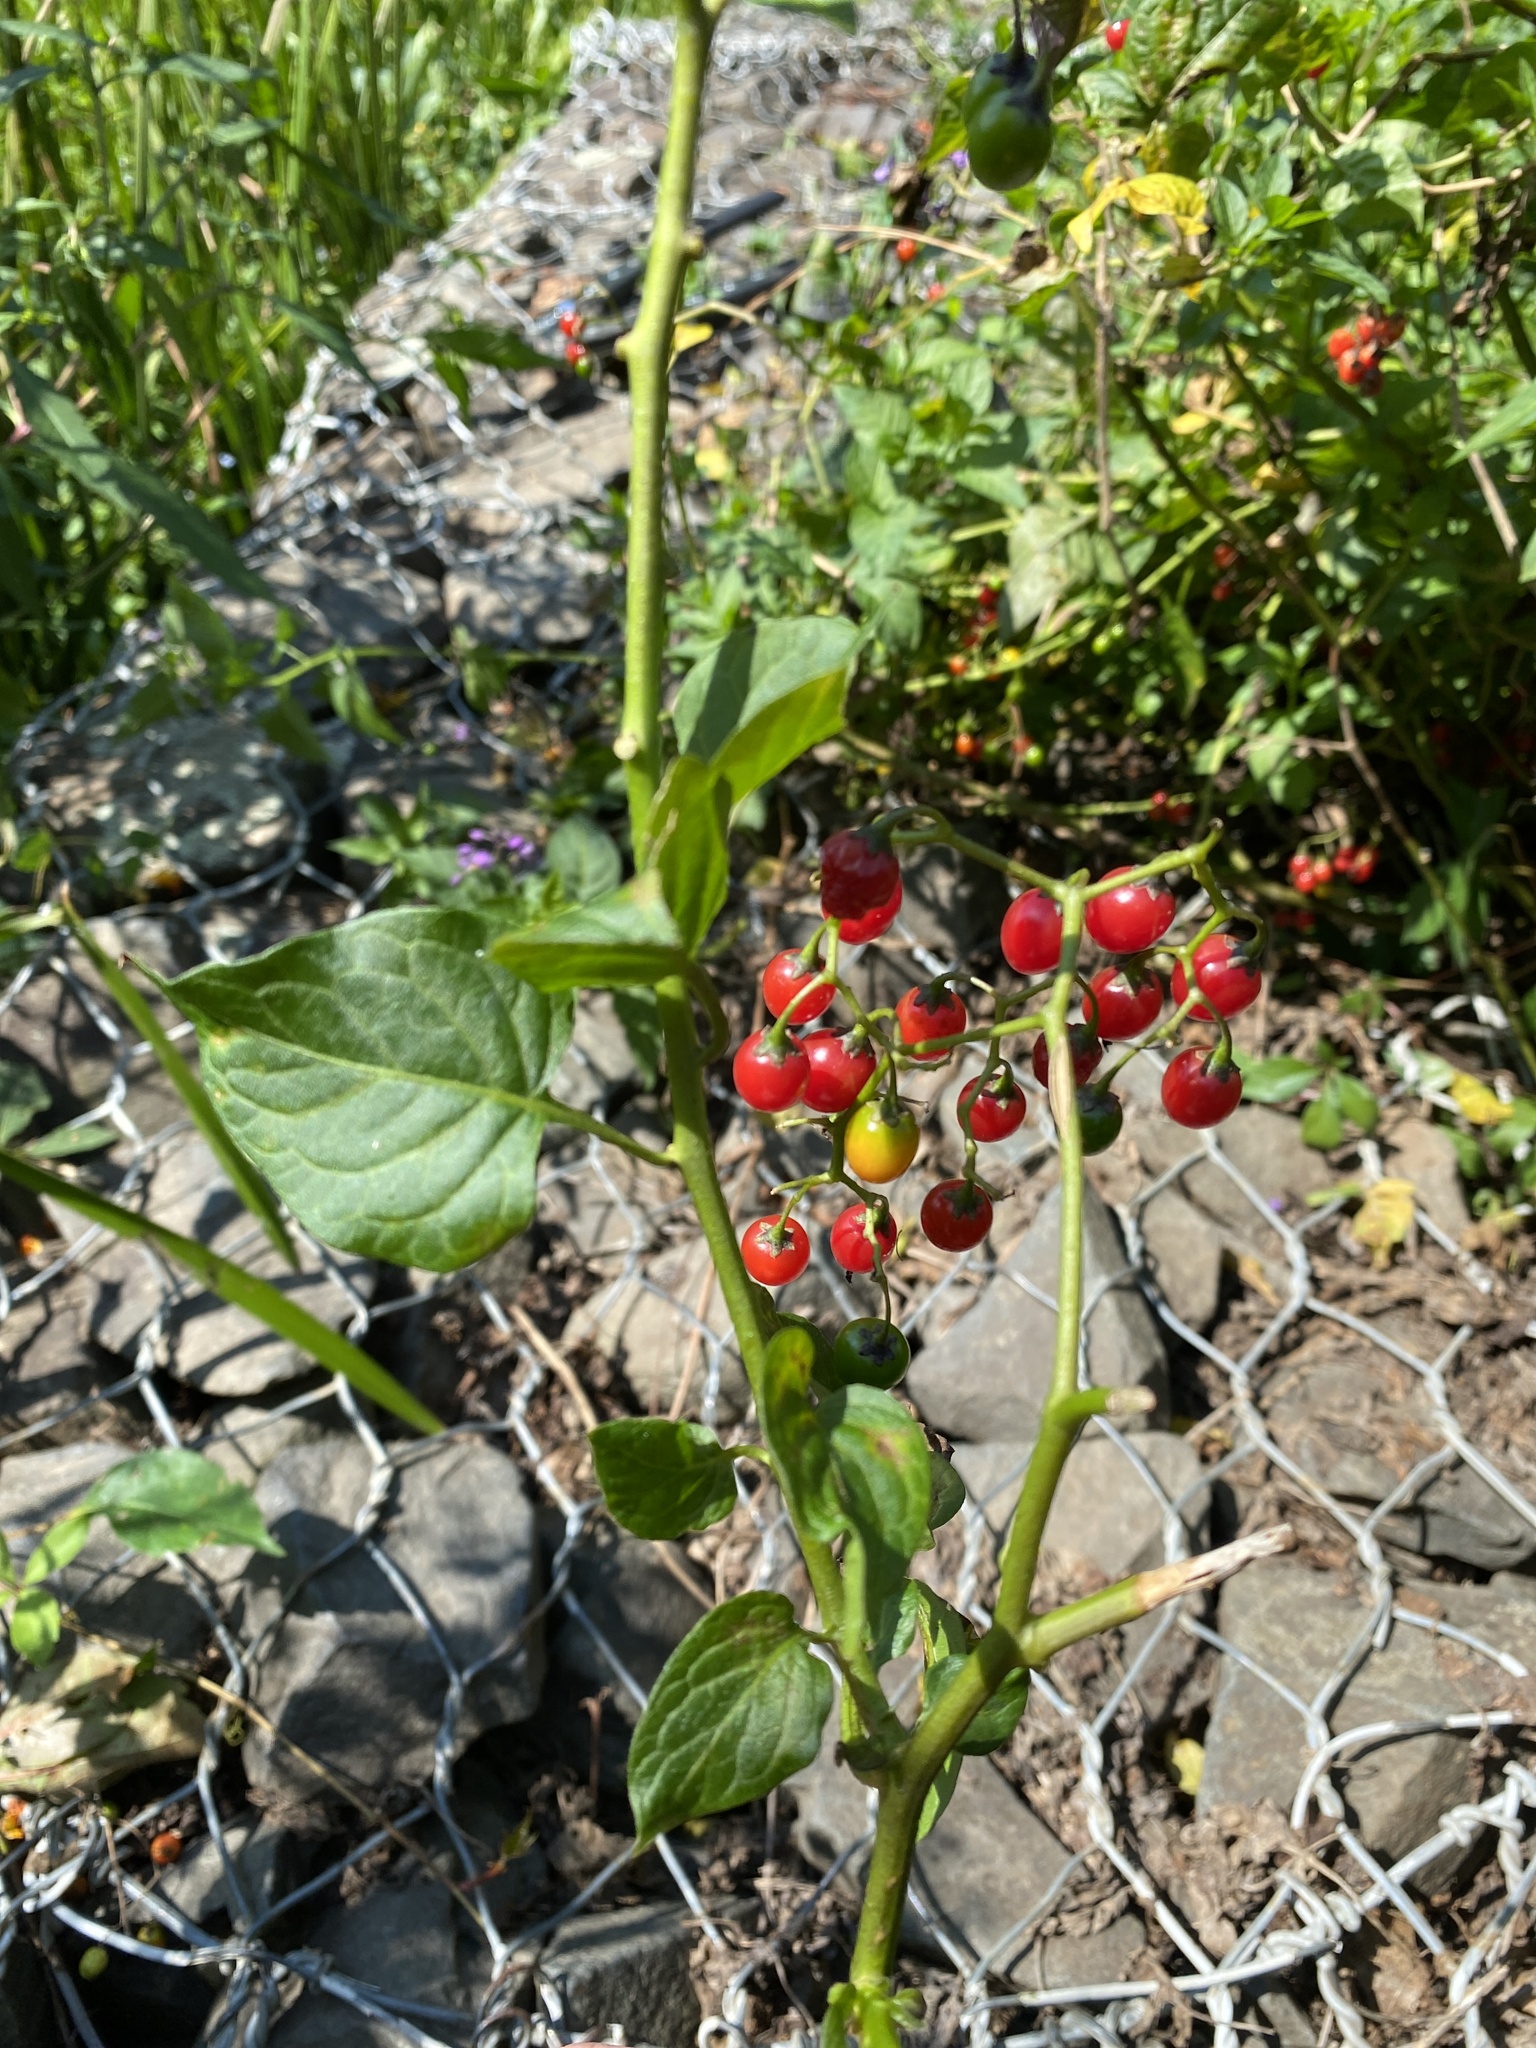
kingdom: Plantae
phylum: Tracheophyta
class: Magnoliopsida
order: Solanales
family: Solanaceae
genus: Solanum
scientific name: Solanum dulcamara
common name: Climbing nightshade
